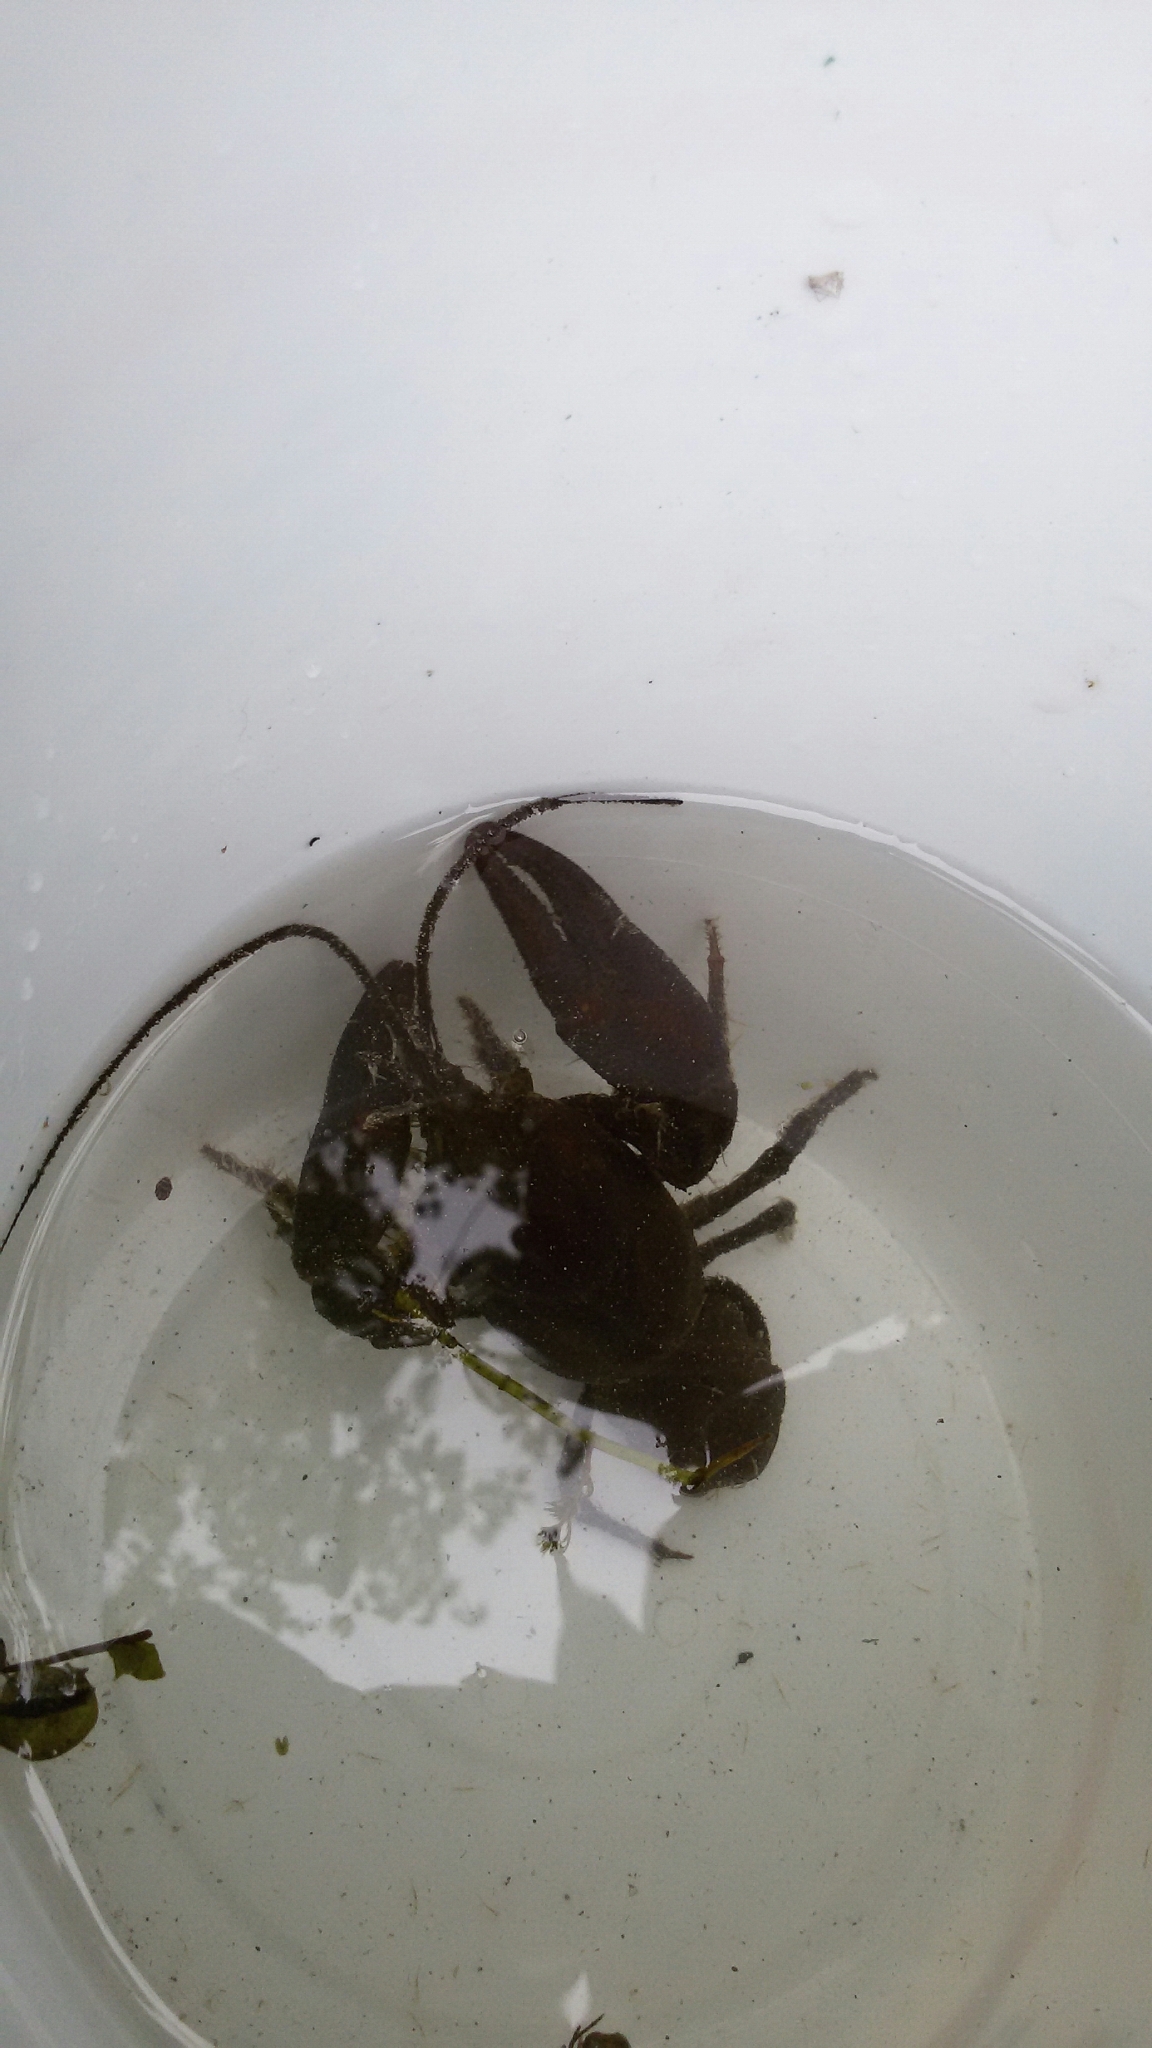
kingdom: Animalia
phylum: Arthropoda
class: Malacostraca
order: Decapoda
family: Astacidae
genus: Austropotamobius
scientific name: Austropotamobius pallipes
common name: White-clawed crayfish
